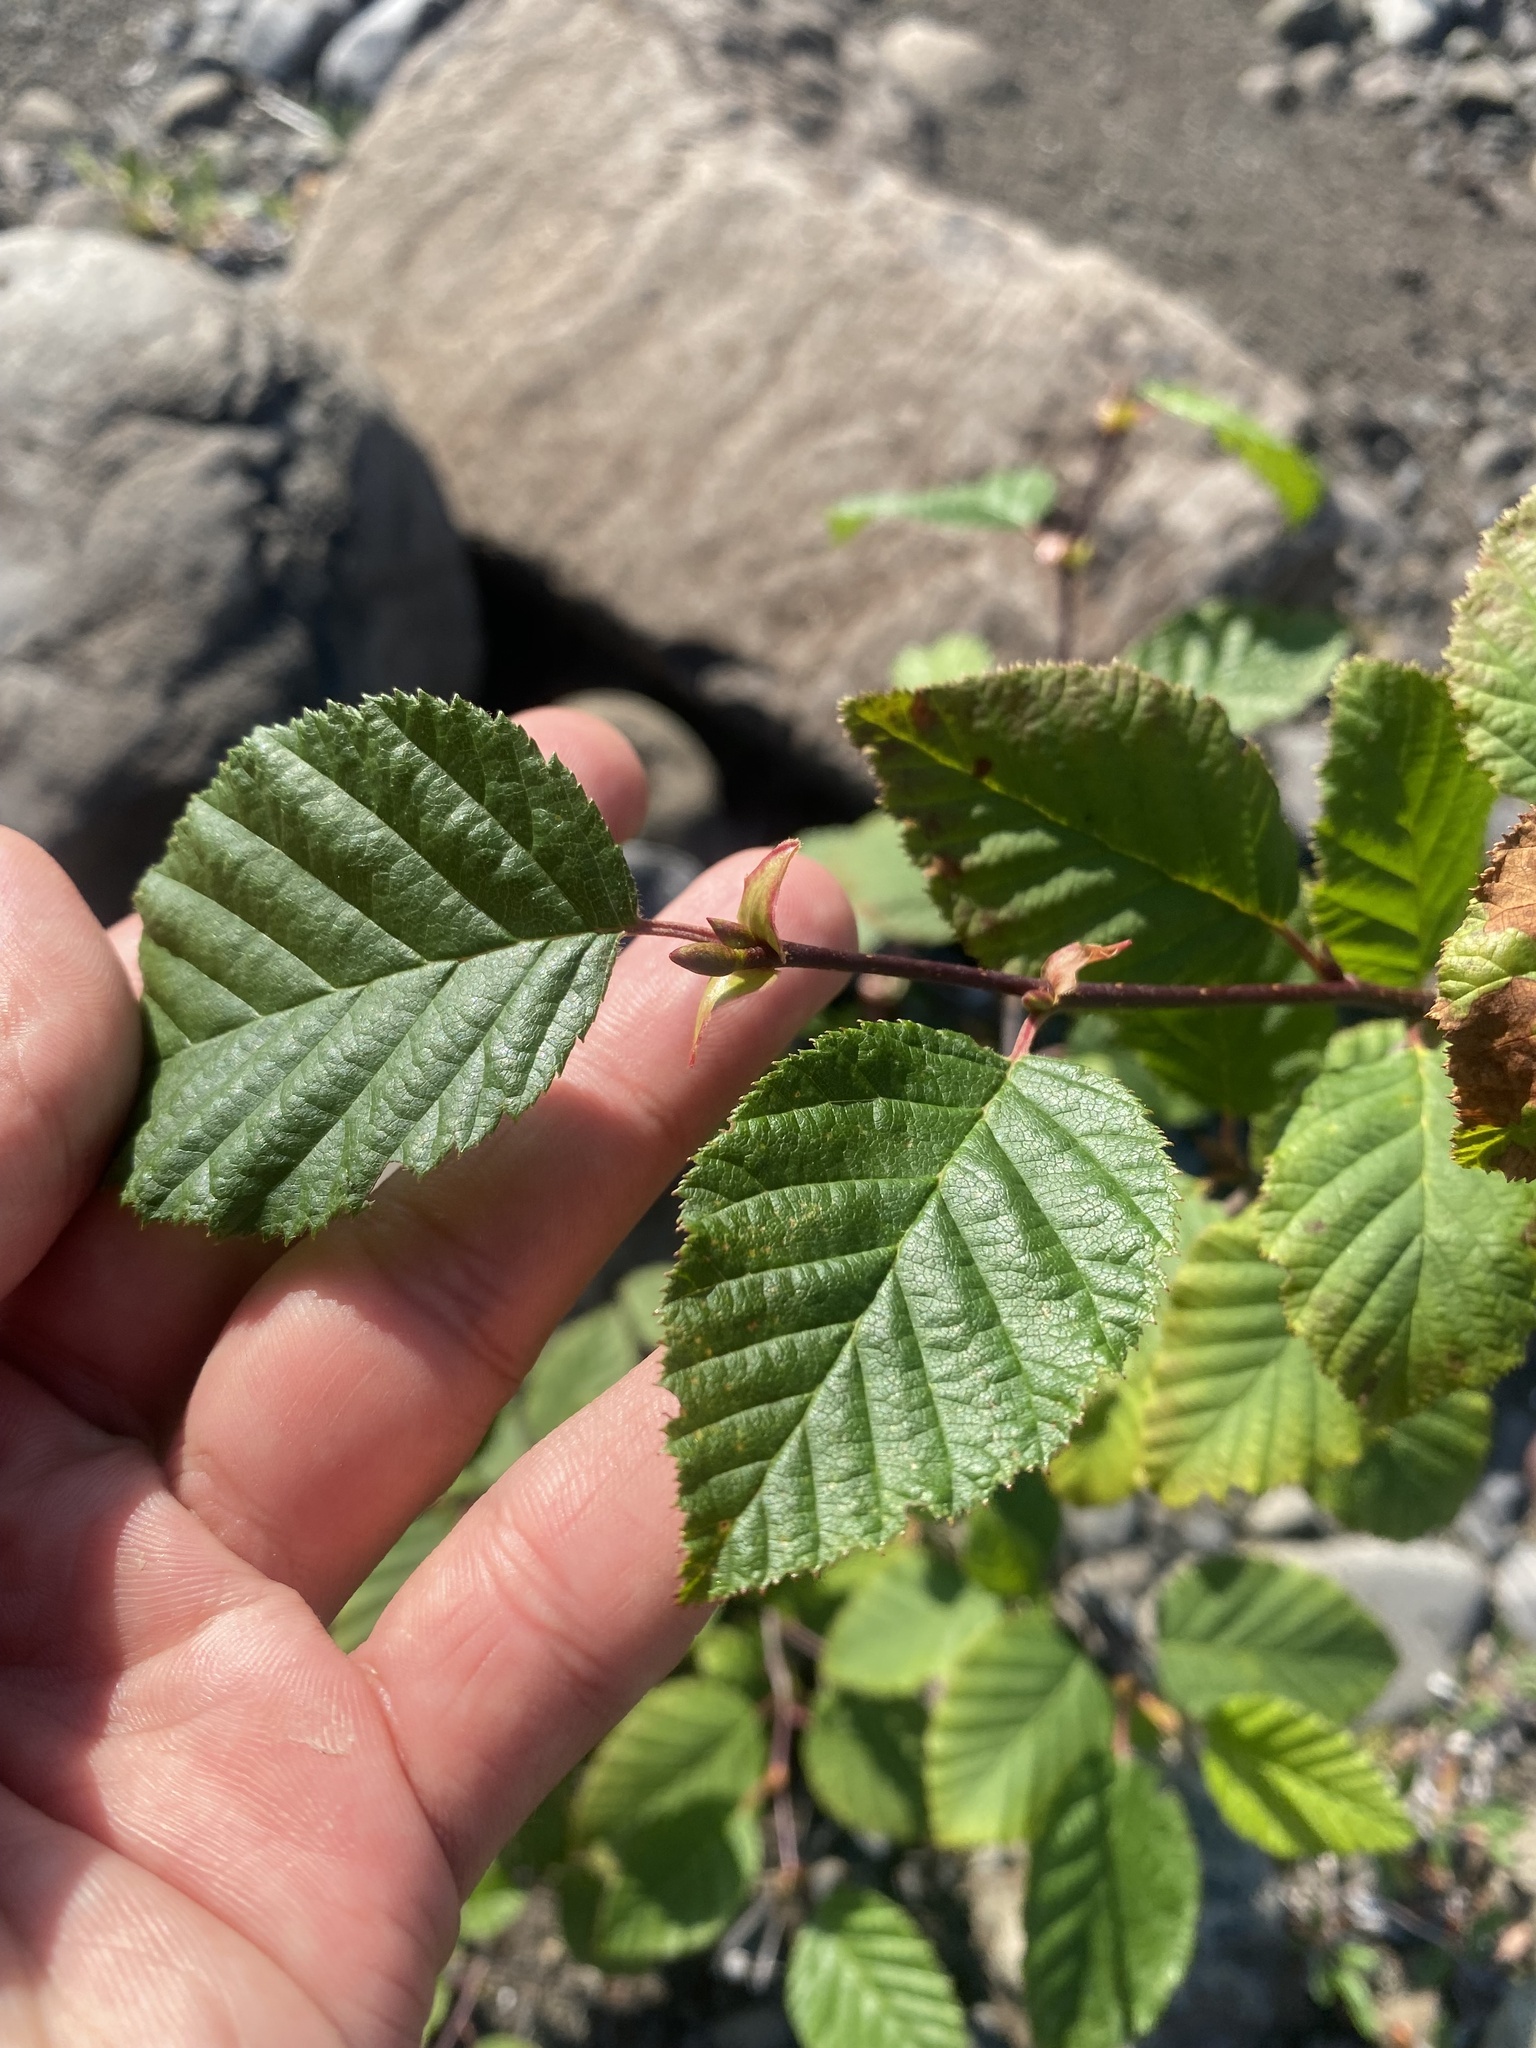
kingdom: Plantae
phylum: Tracheophyta
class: Magnoliopsida
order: Fagales
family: Betulaceae
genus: Alnus
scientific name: Alnus alnobetula
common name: Green alder
